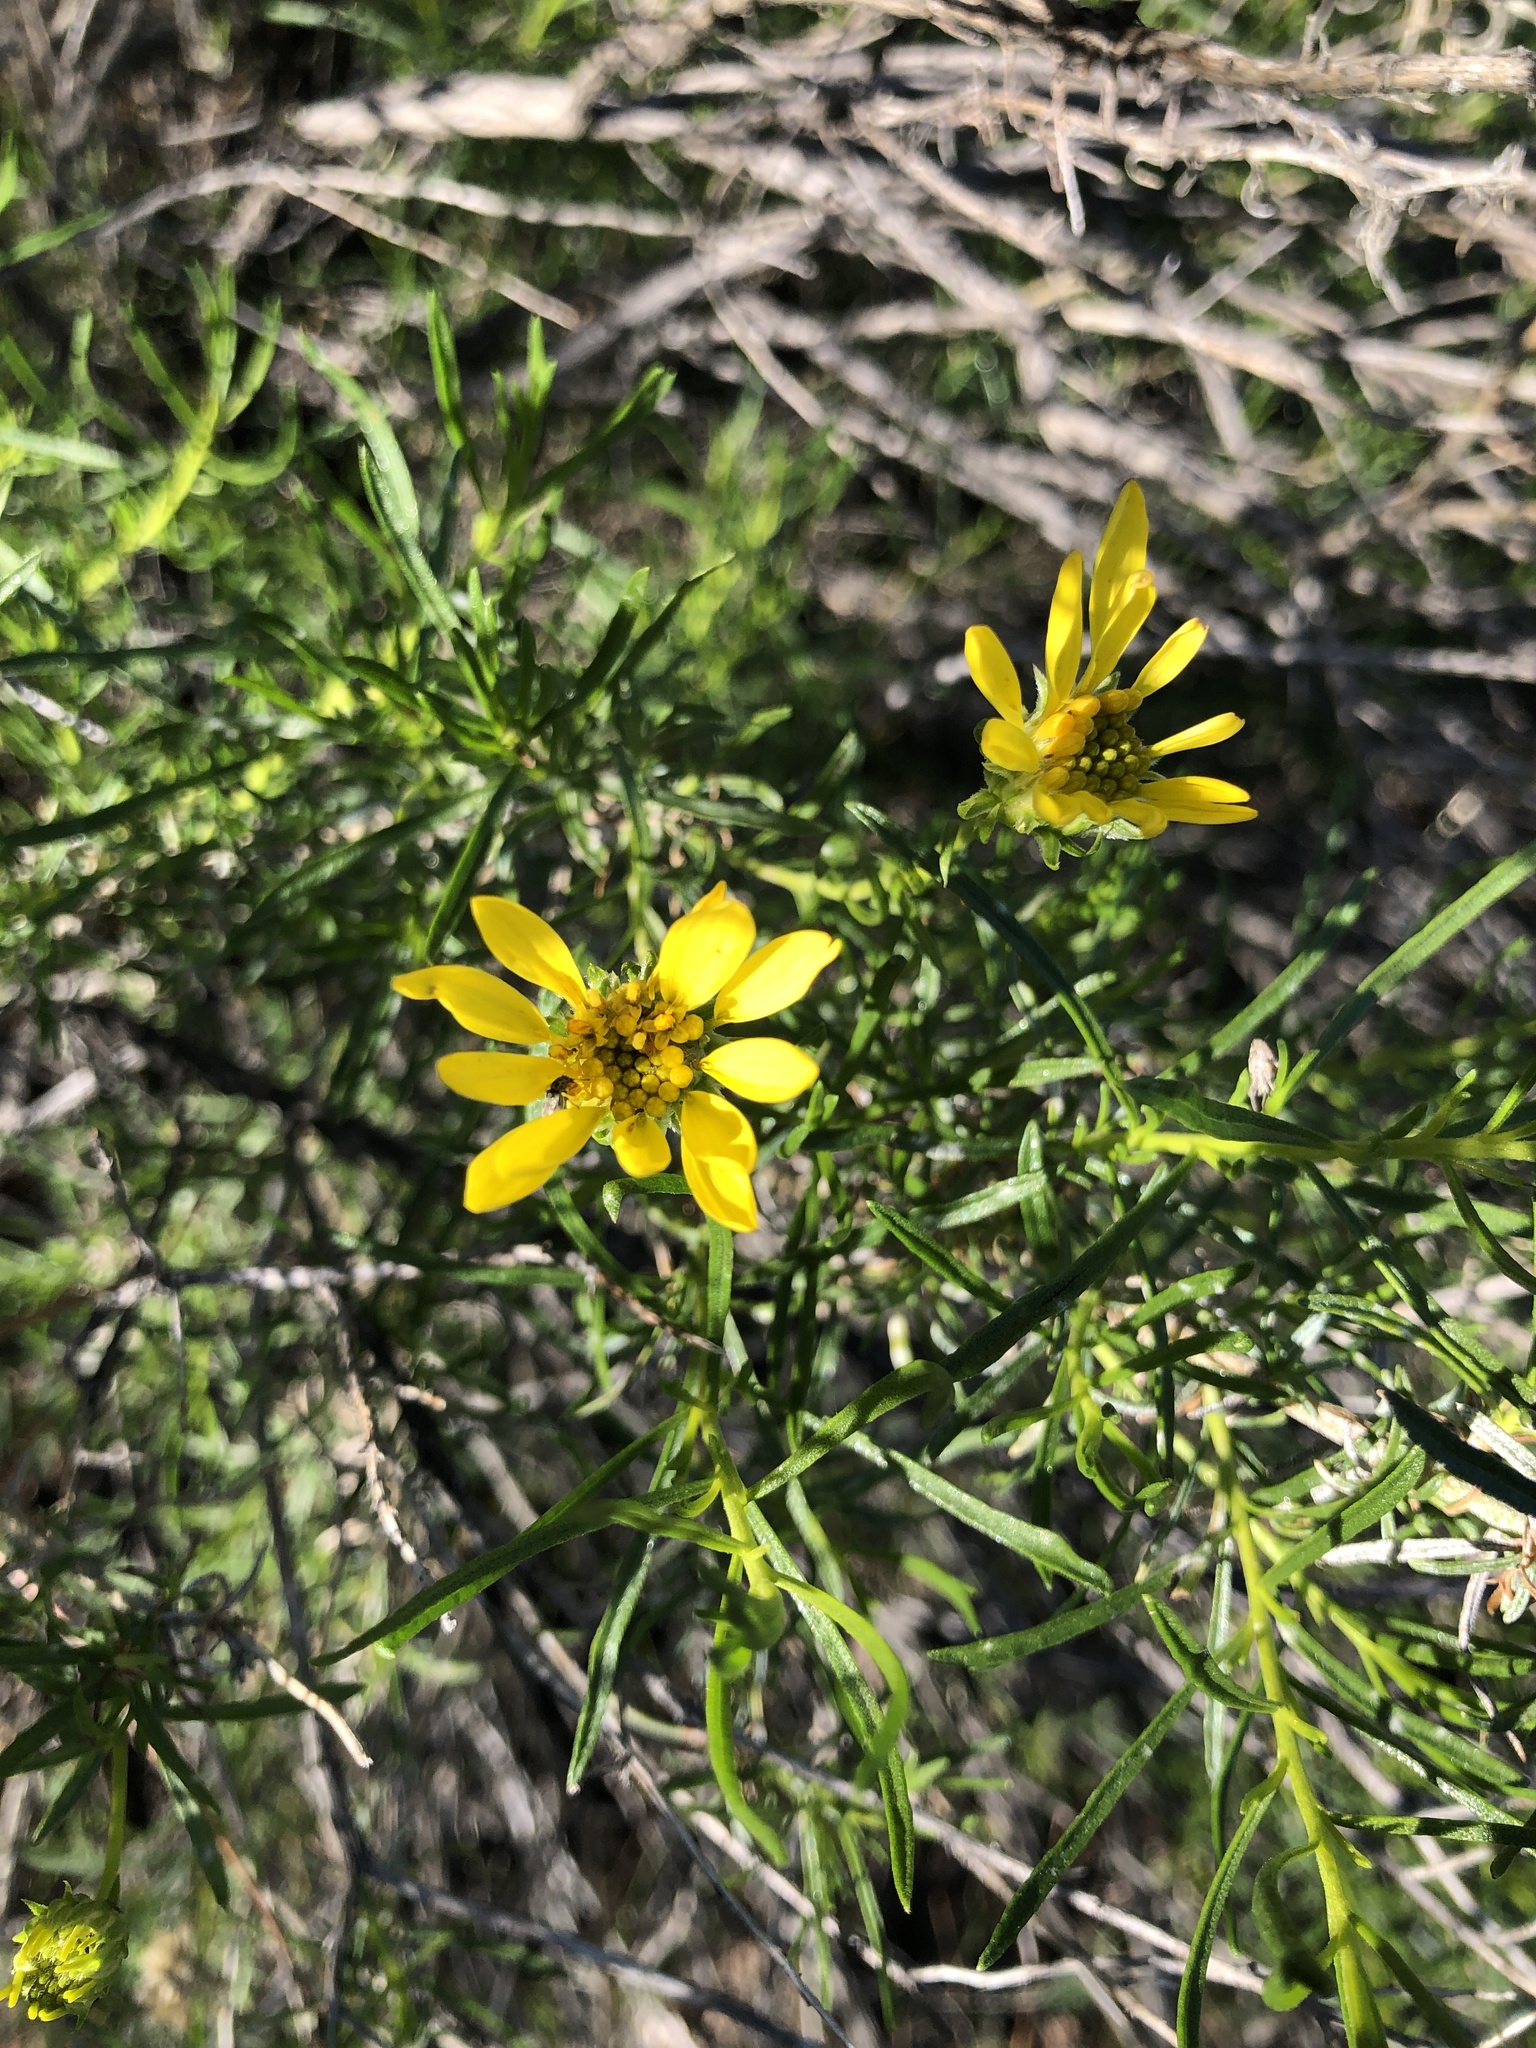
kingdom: Plantae
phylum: Tracheophyta
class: Magnoliopsida
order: Asterales
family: Asteraceae
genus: Ericameria
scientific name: Ericameria linearifolia
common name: Interior goldenbush
